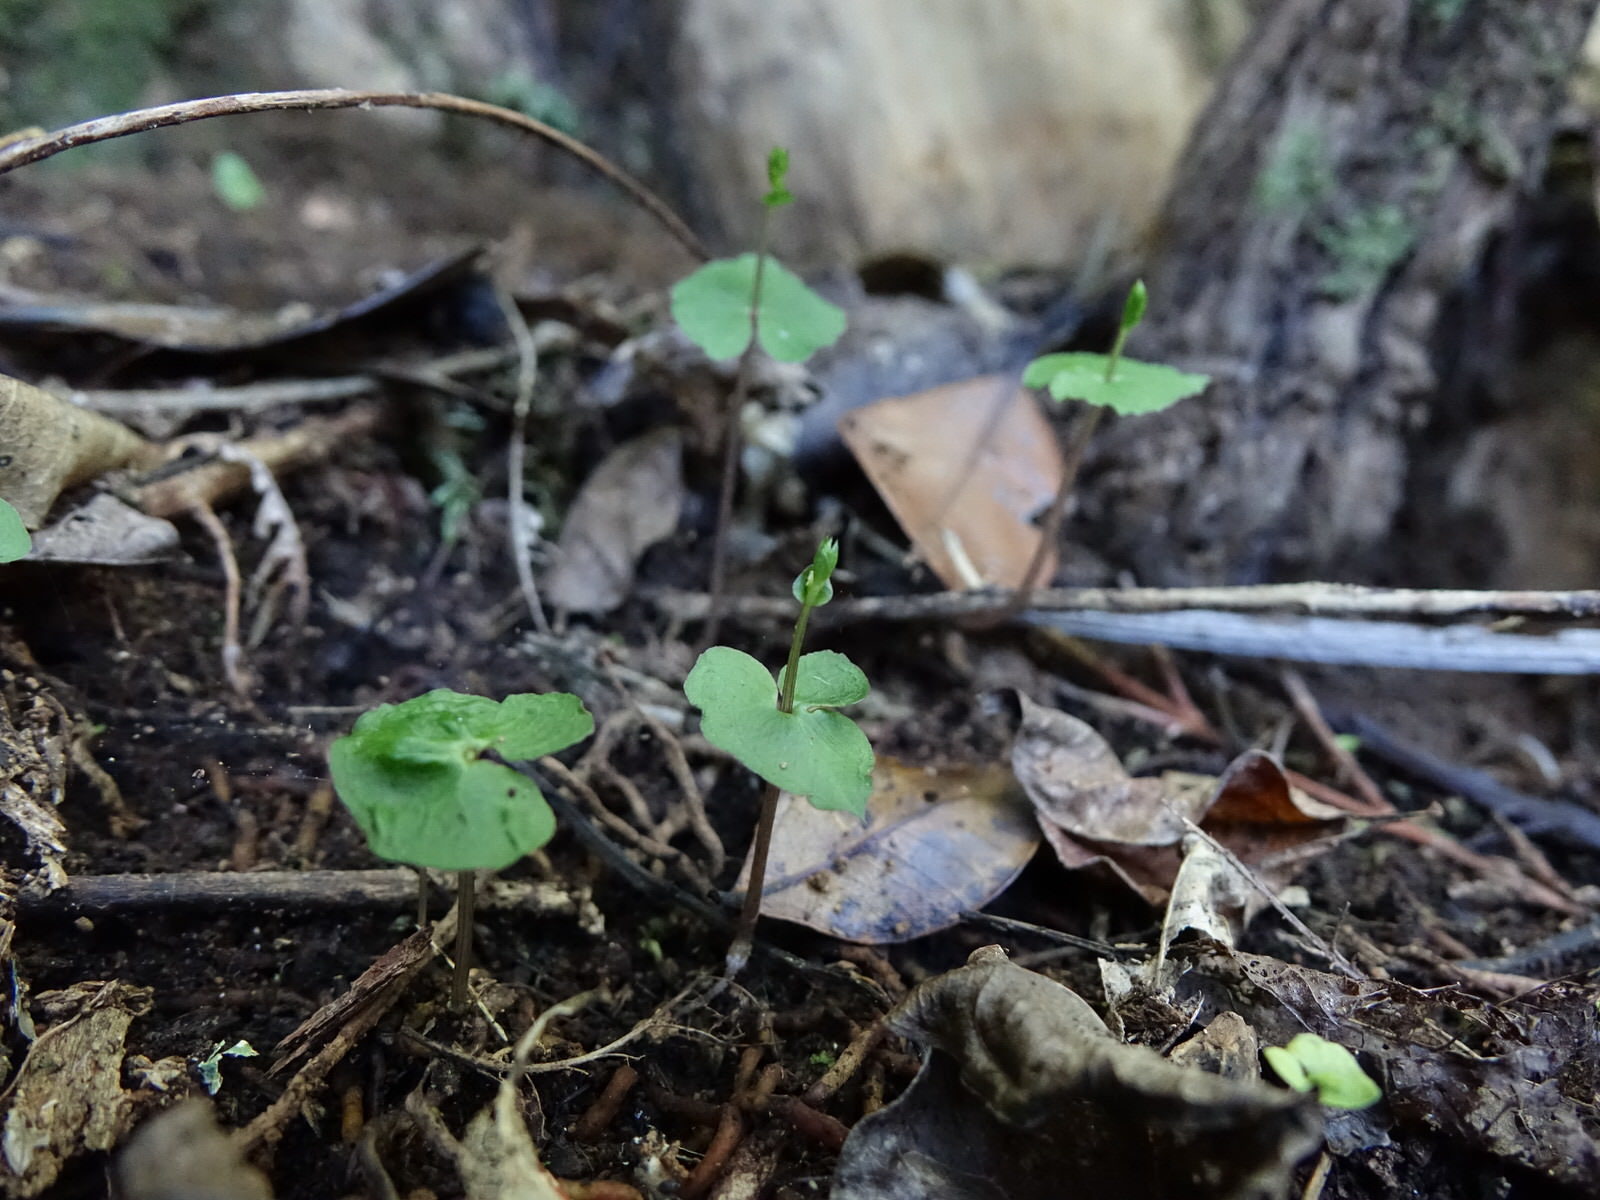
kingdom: Plantae
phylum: Tracheophyta
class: Liliopsida
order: Asparagales
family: Orchidaceae
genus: Acianthus
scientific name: Acianthus sinclairii
